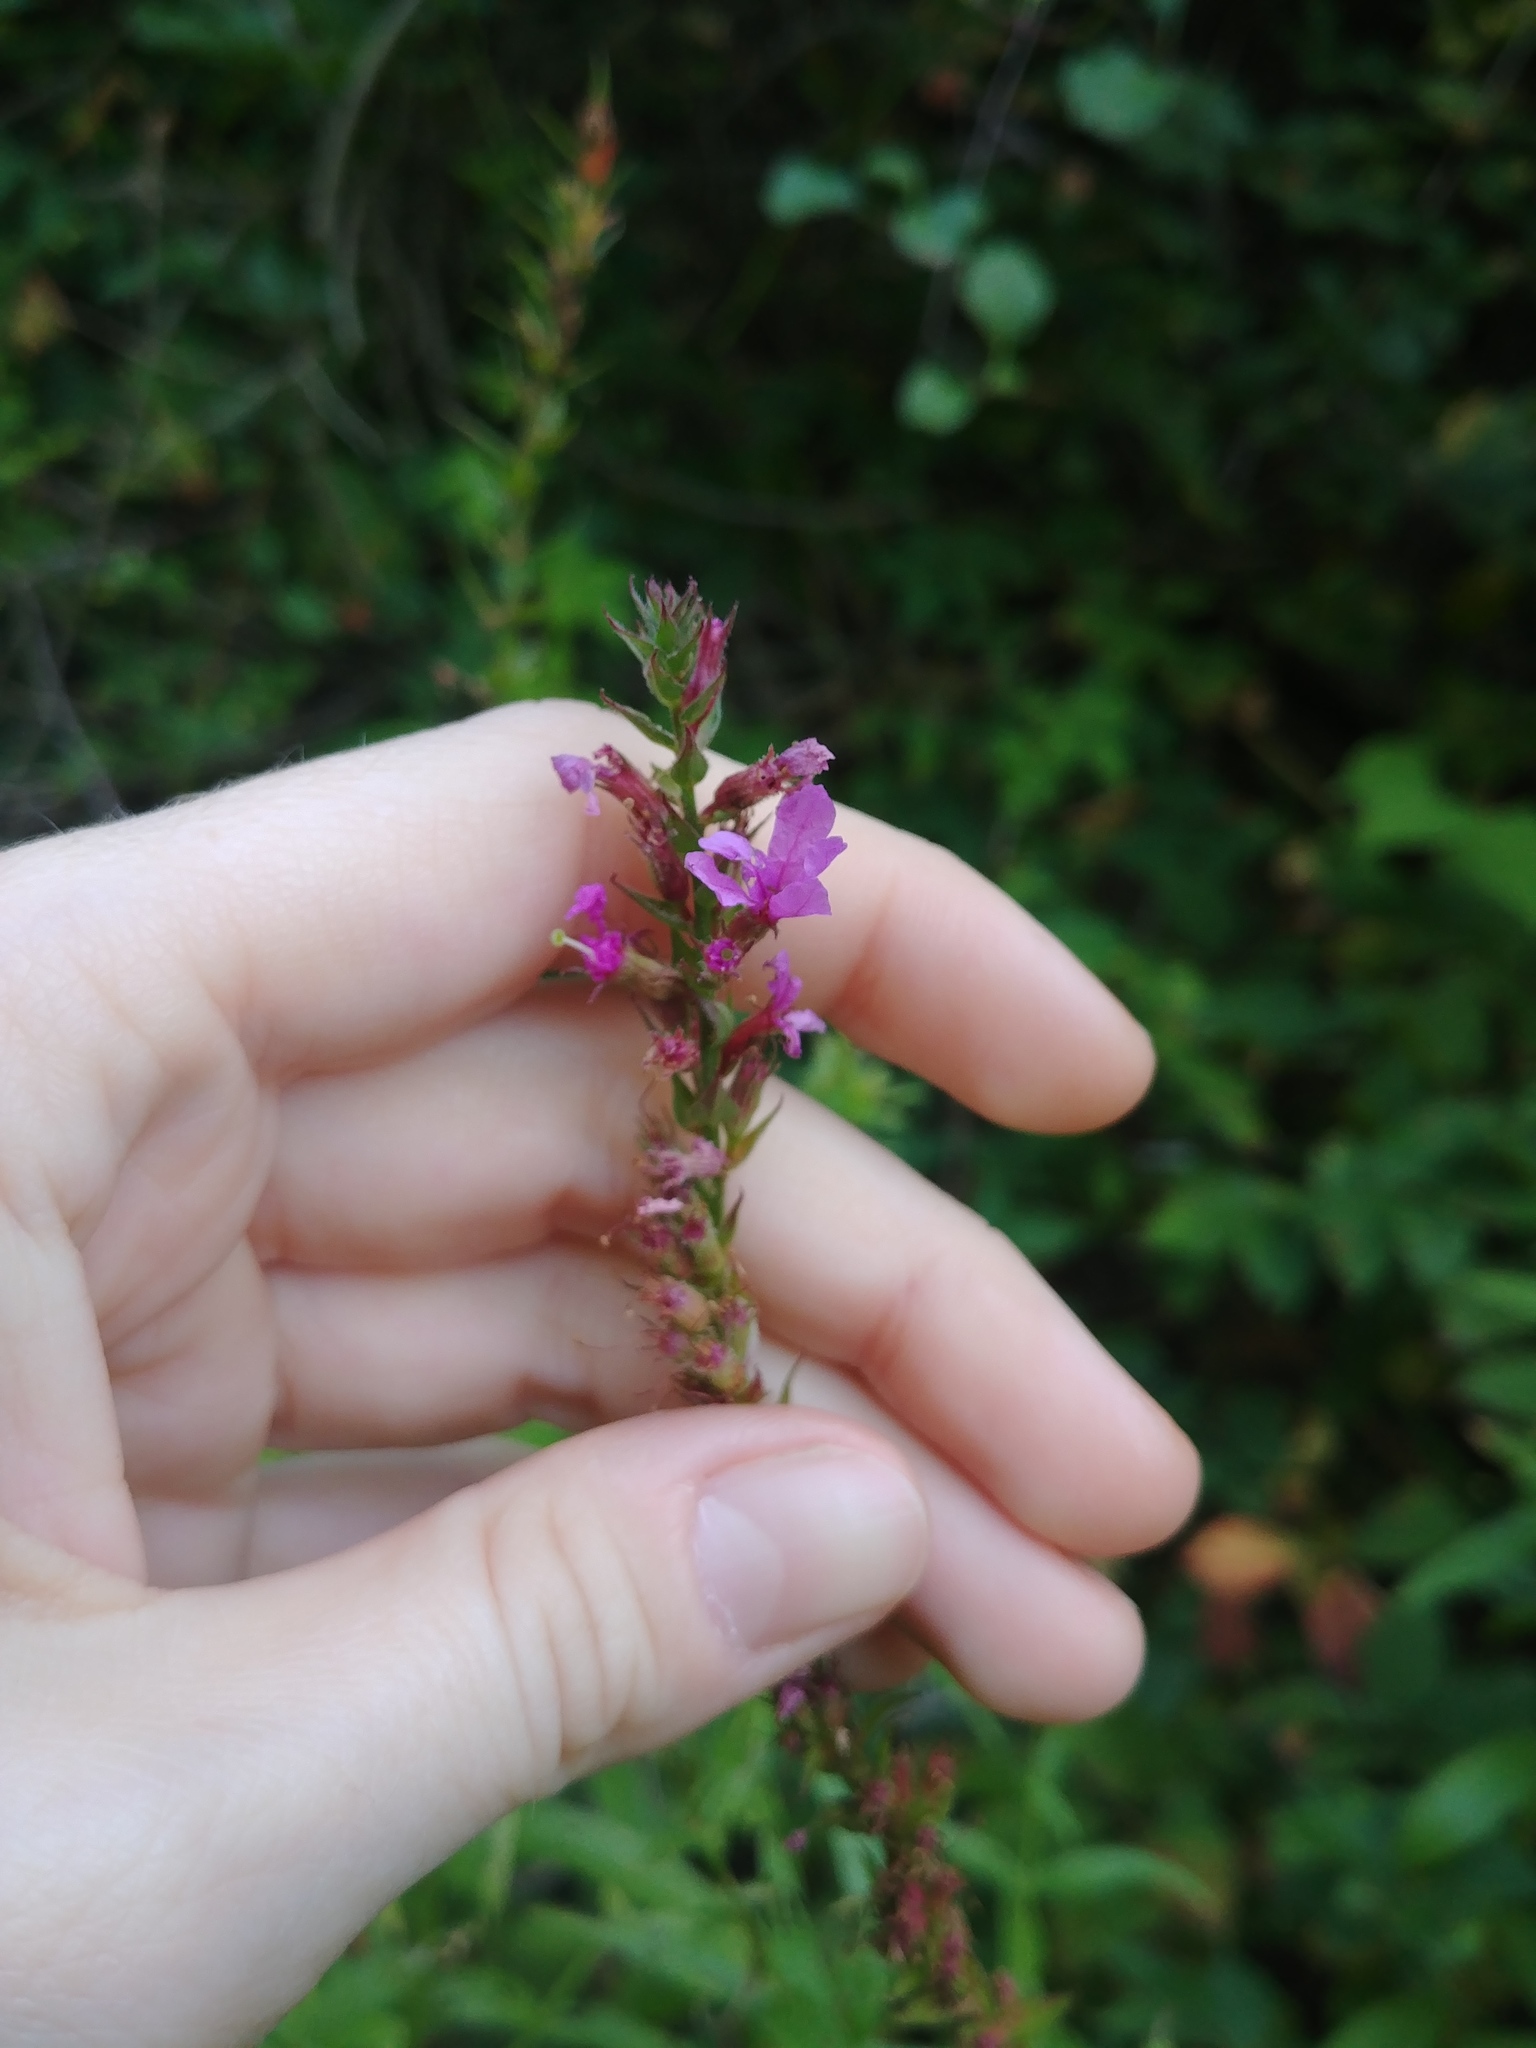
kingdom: Plantae
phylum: Tracheophyta
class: Magnoliopsida
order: Myrtales
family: Lythraceae
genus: Lythrum
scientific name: Lythrum salicaria
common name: Purple loosestrife
